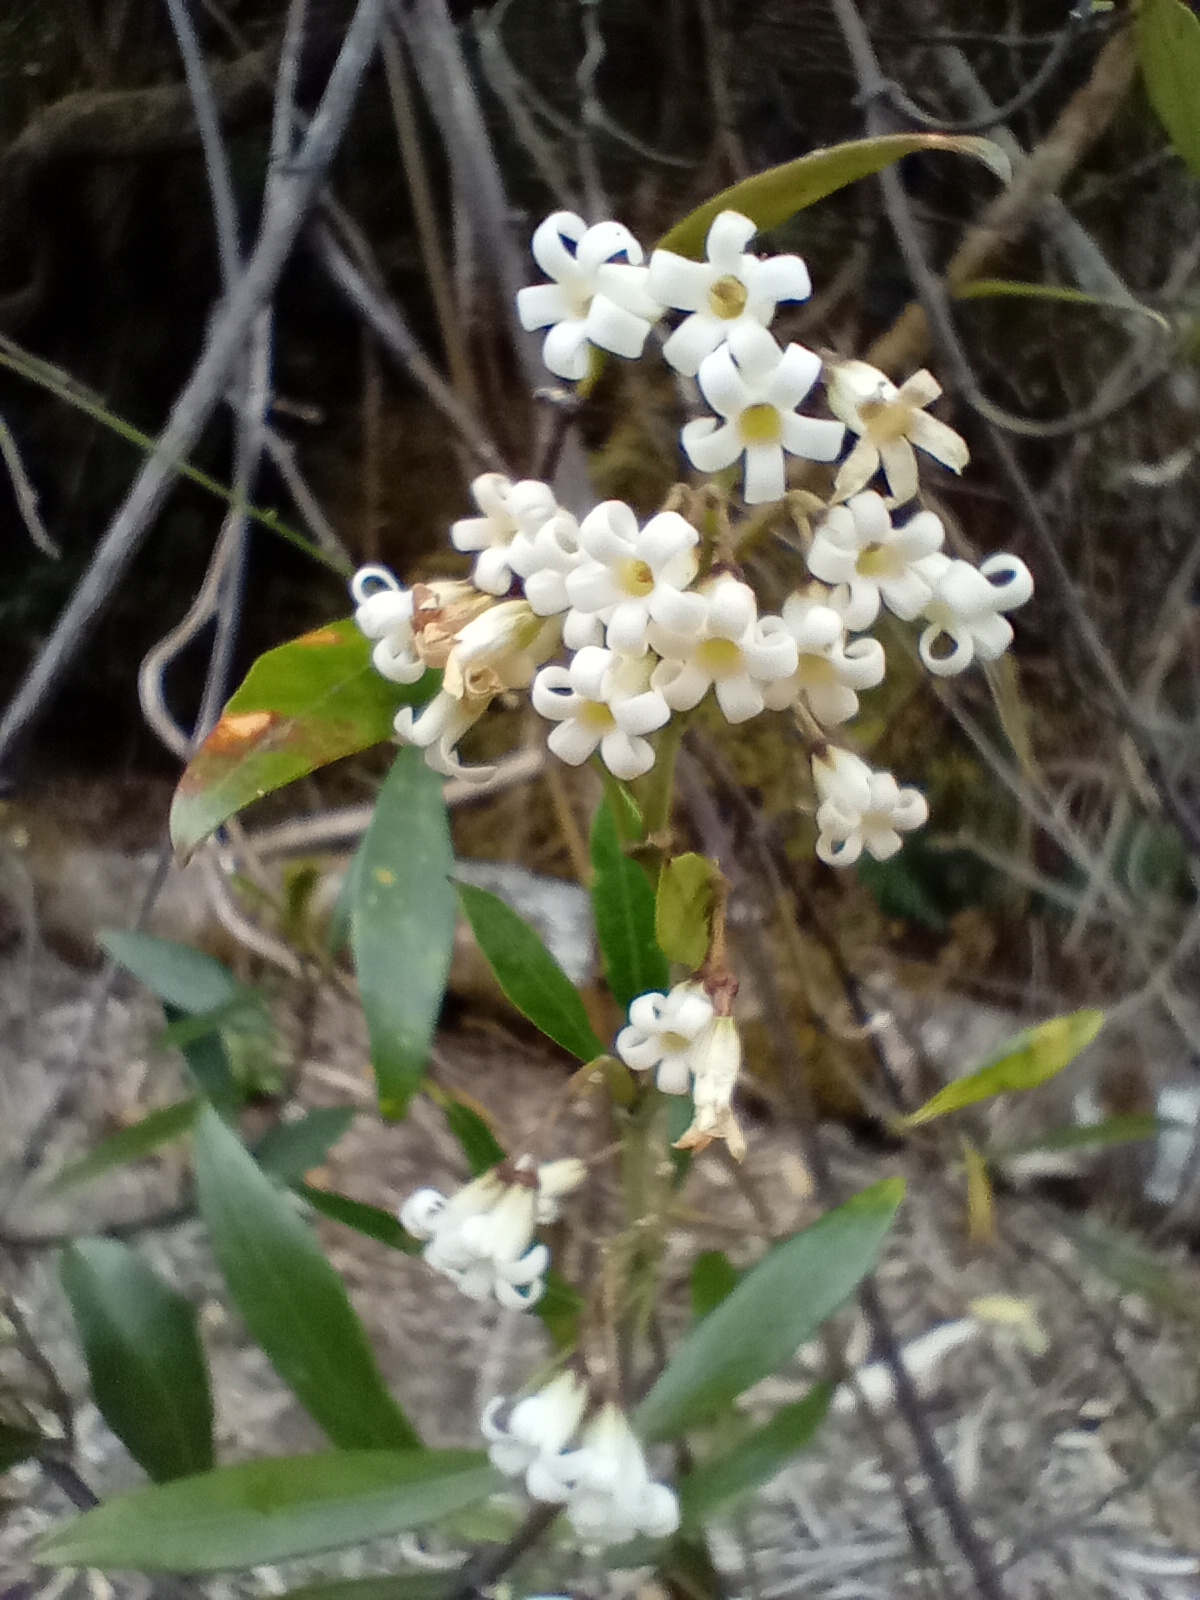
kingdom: Plantae
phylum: Tracheophyta
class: Magnoliopsida
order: Gentianales
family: Apocynaceae
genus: Parsonsia
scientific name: Parsonsia heterophylla
